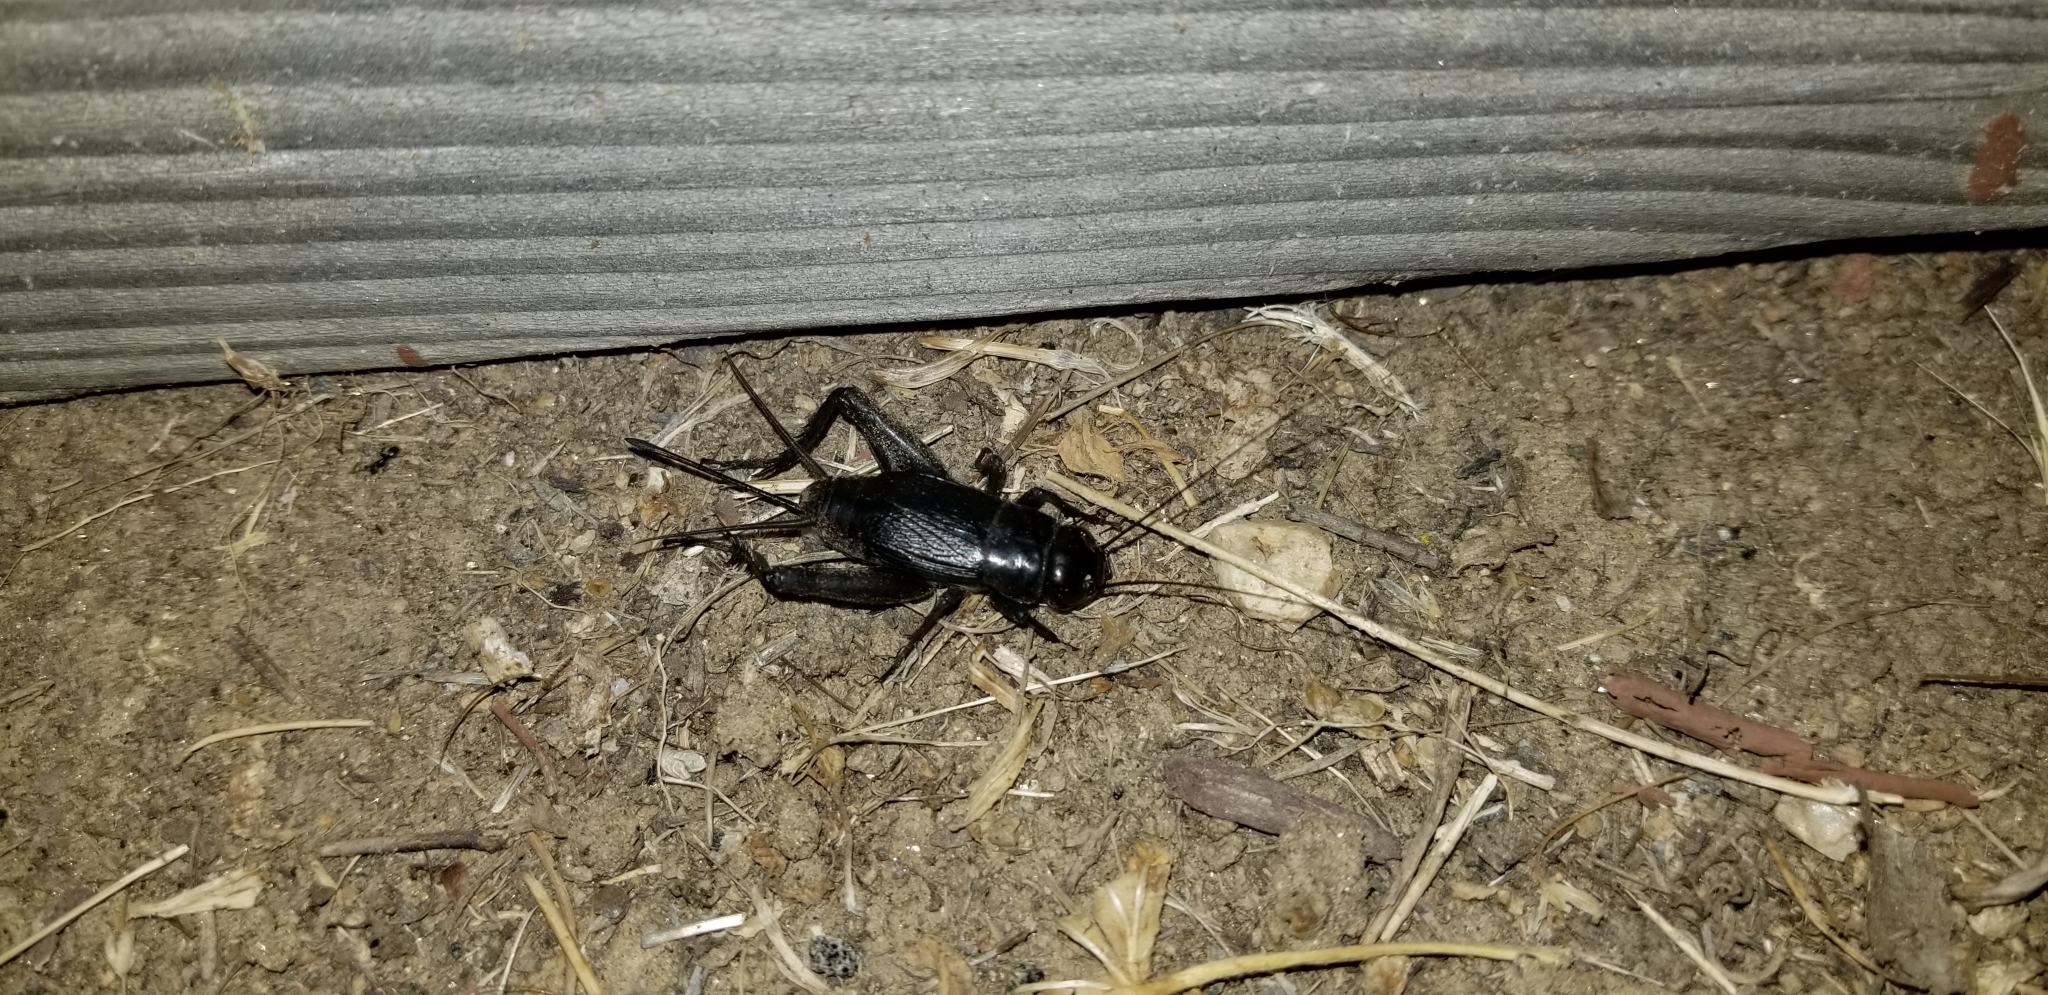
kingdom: Animalia
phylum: Arthropoda
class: Insecta
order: Orthoptera
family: Gryllidae
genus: Gryllus
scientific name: Gryllus
